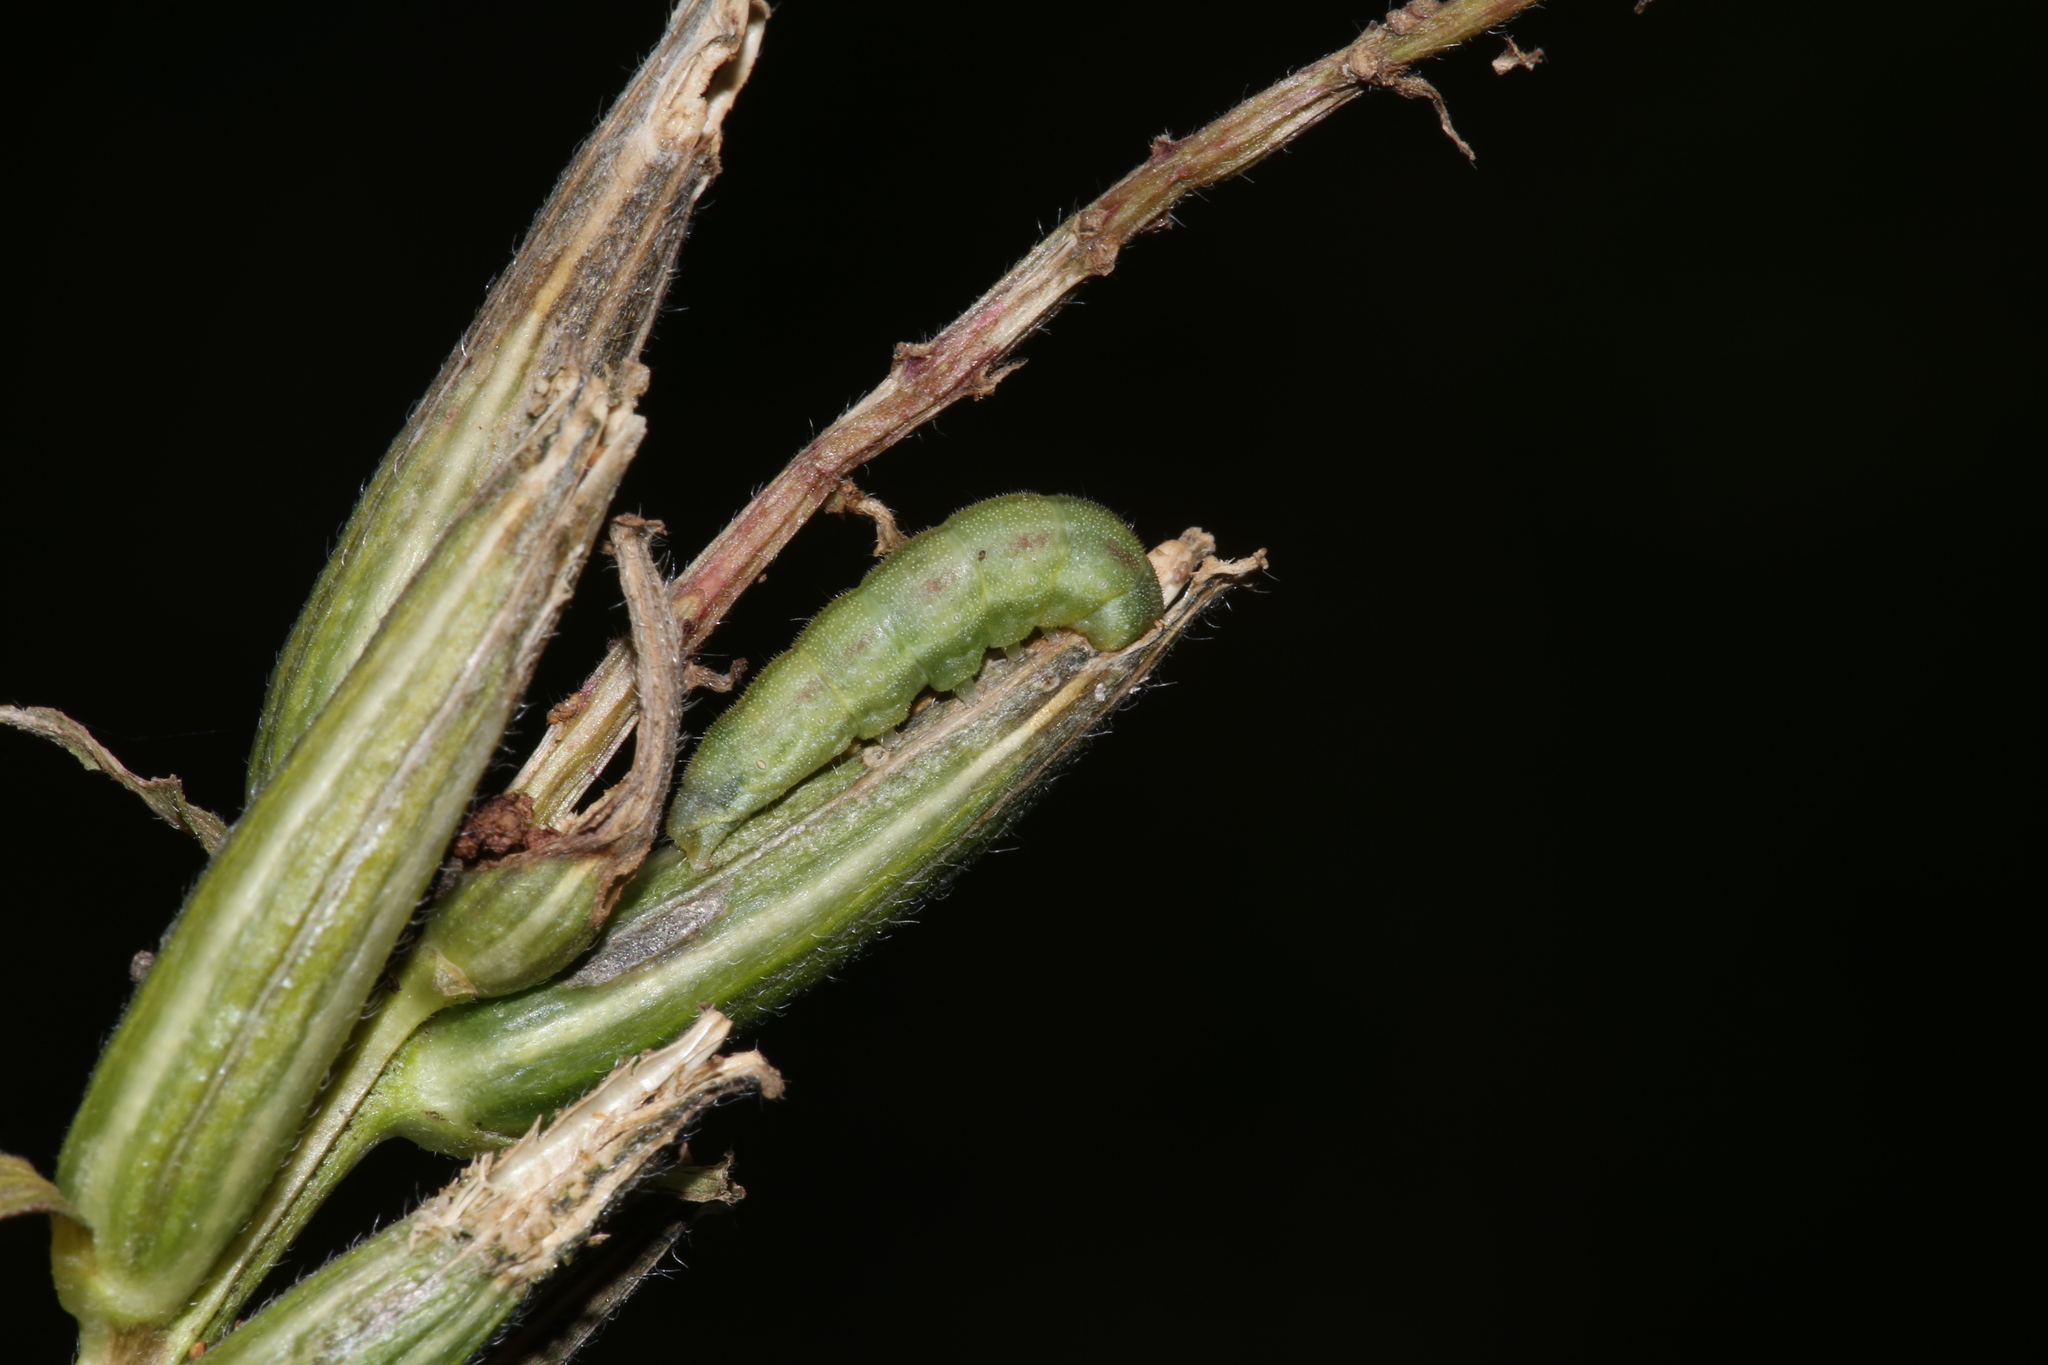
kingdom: Animalia
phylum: Arthropoda
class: Insecta
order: Lepidoptera
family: Noctuidae
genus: Schinia
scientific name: Schinia florida
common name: Primrose moth
